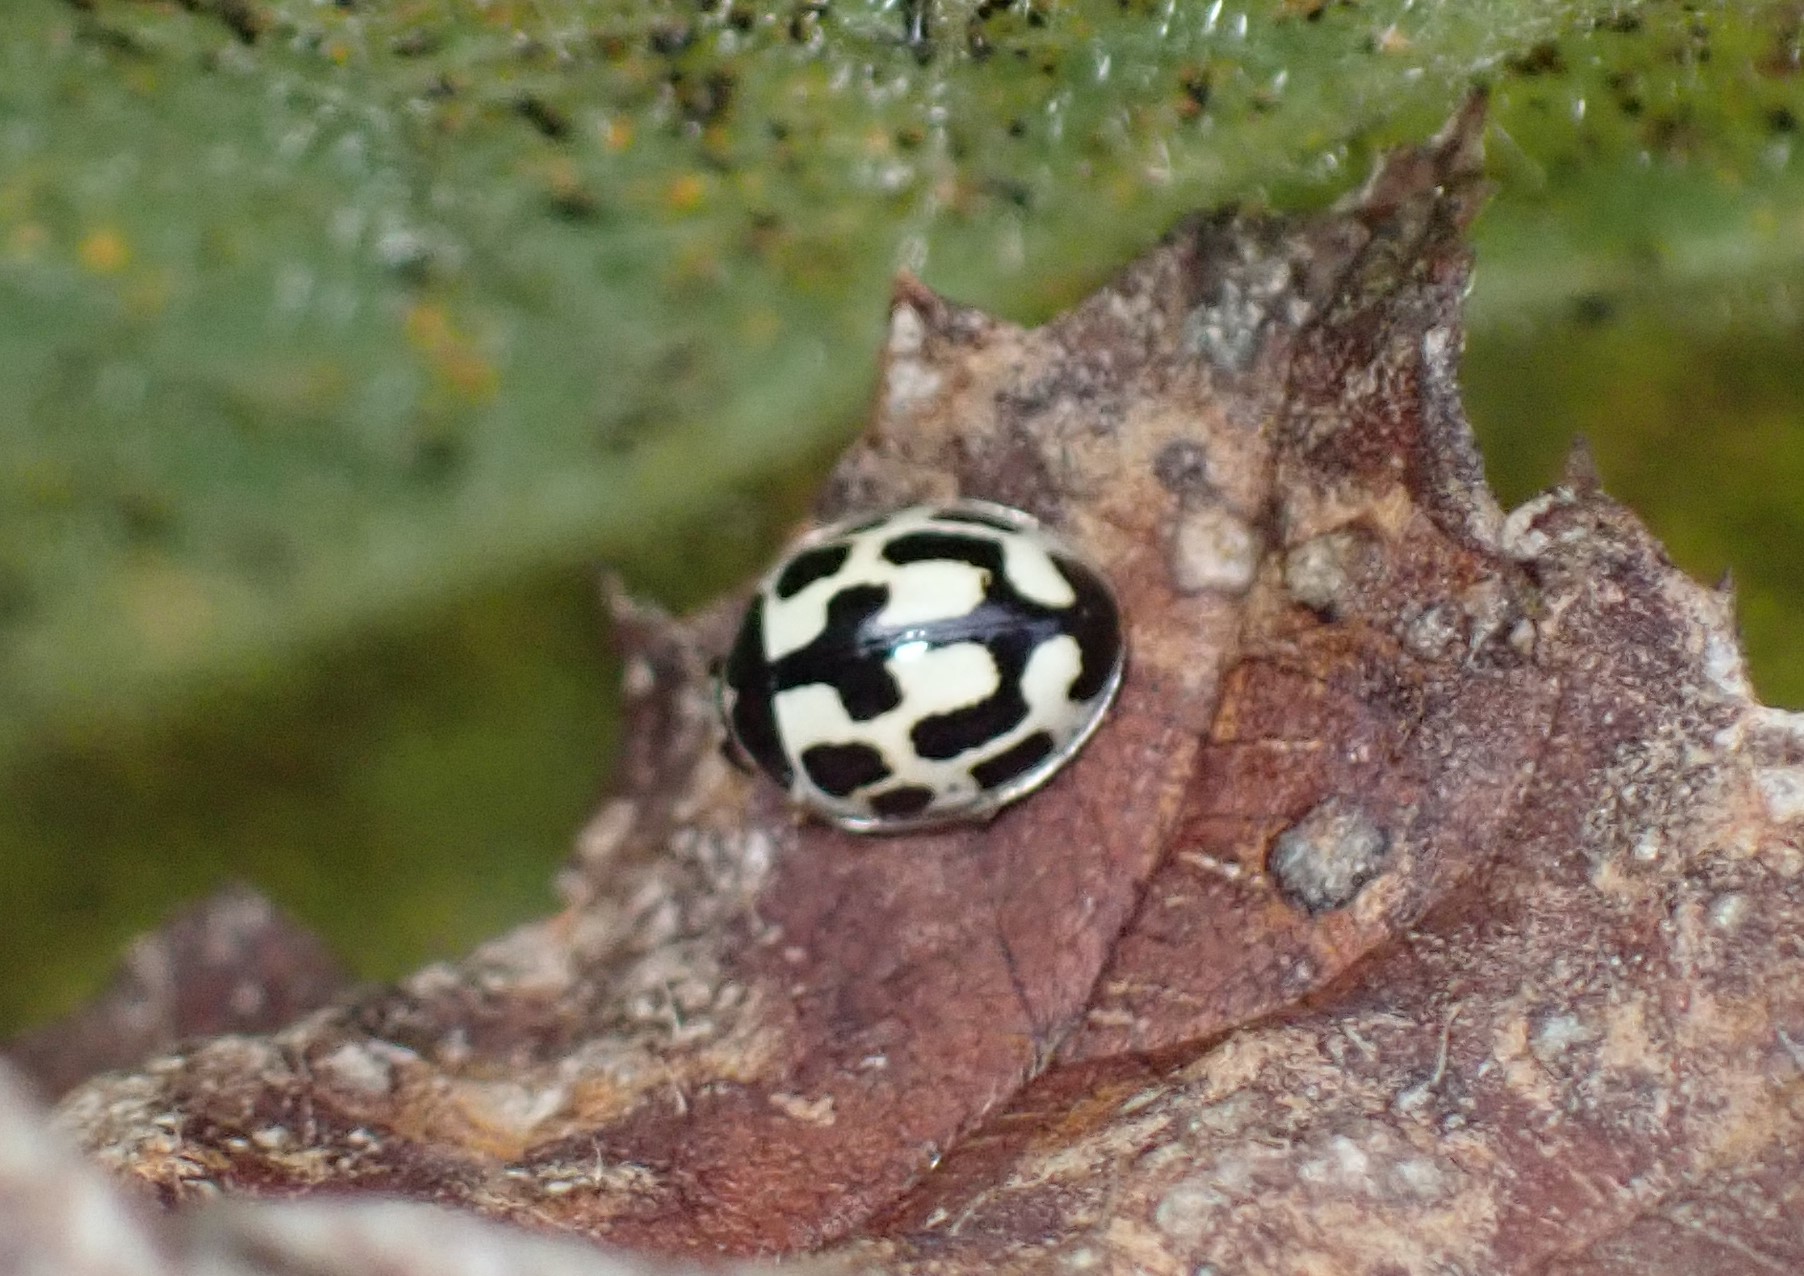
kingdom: Animalia
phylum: Arthropoda
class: Insecta
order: Coleoptera
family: Coccinellidae
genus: Propylaea
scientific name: Propylaea quatuordecimpunctata
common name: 14-spotted ladybird beetle
